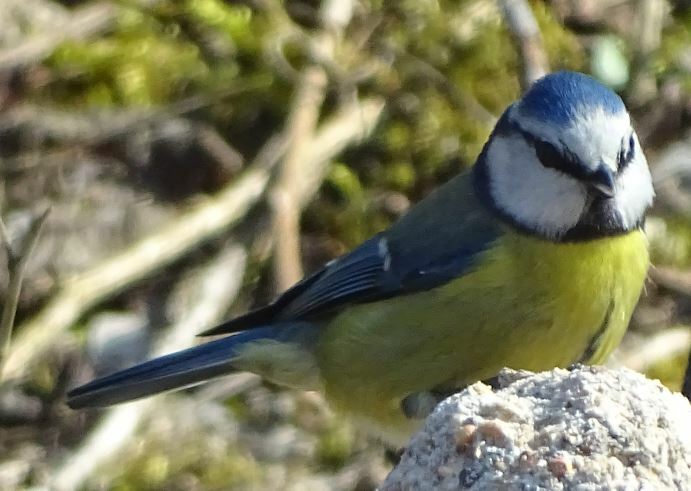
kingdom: Animalia
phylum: Chordata
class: Aves
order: Passeriformes
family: Paridae
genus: Cyanistes
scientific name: Cyanistes caeruleus
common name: Eurasian blue tit
